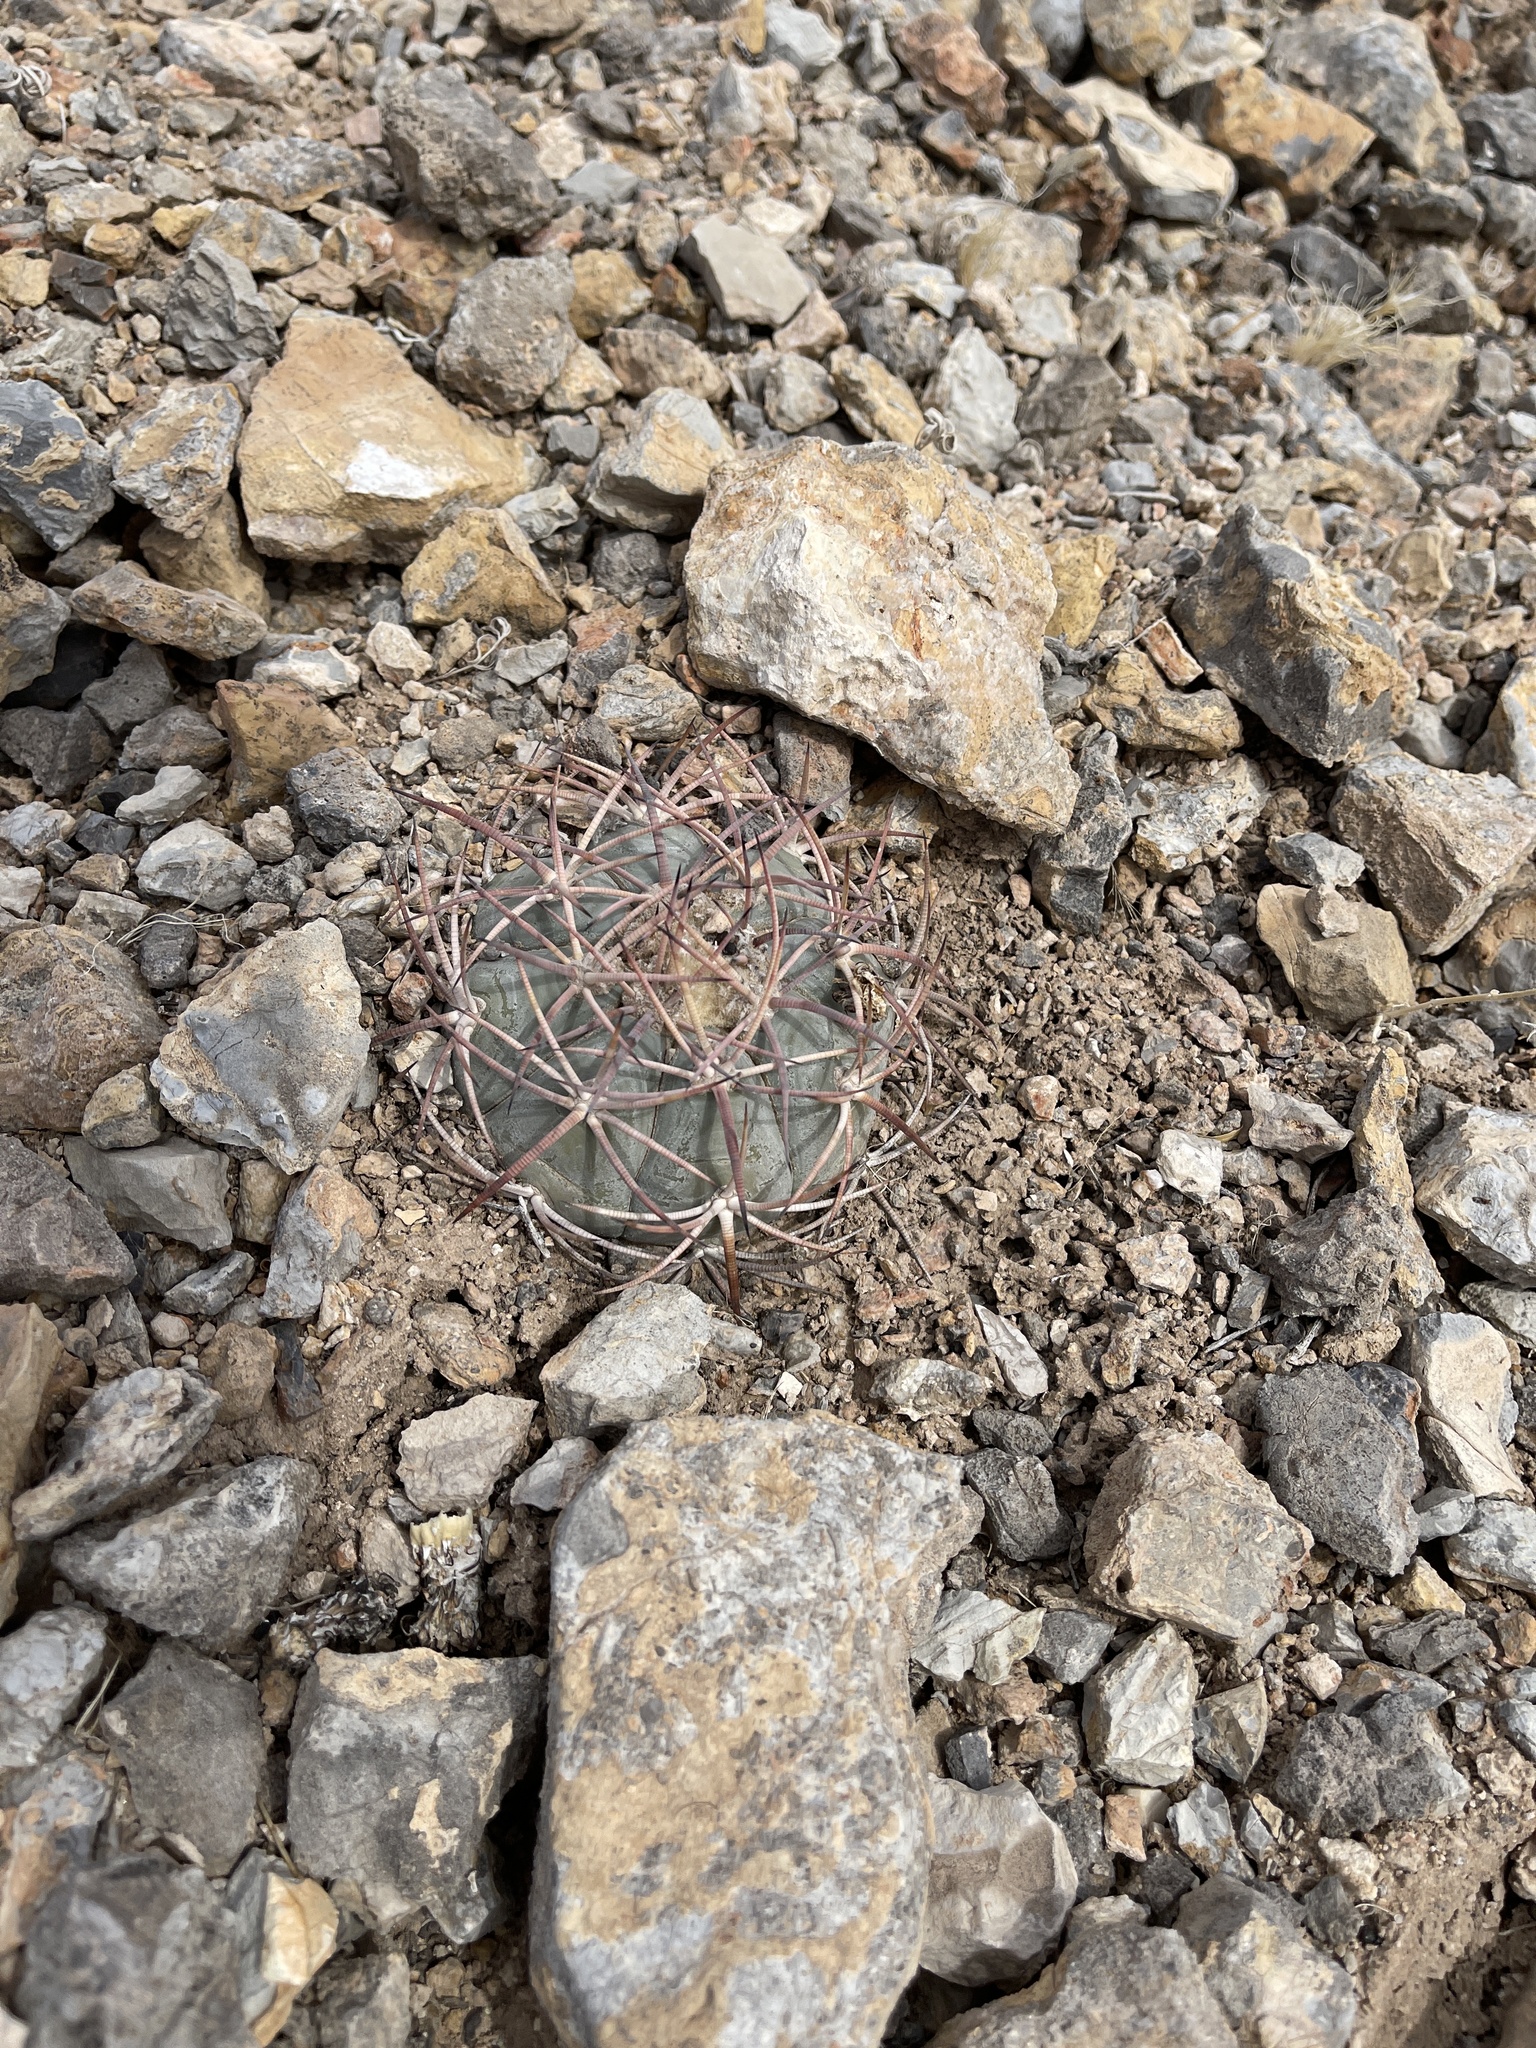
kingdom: Plantae
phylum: Tracheophyta
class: Magnoliopsida
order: Caryophyllales
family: Cactaceae
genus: Echinocactus
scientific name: Echinocactus horizonthalonius
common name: Devilshead
